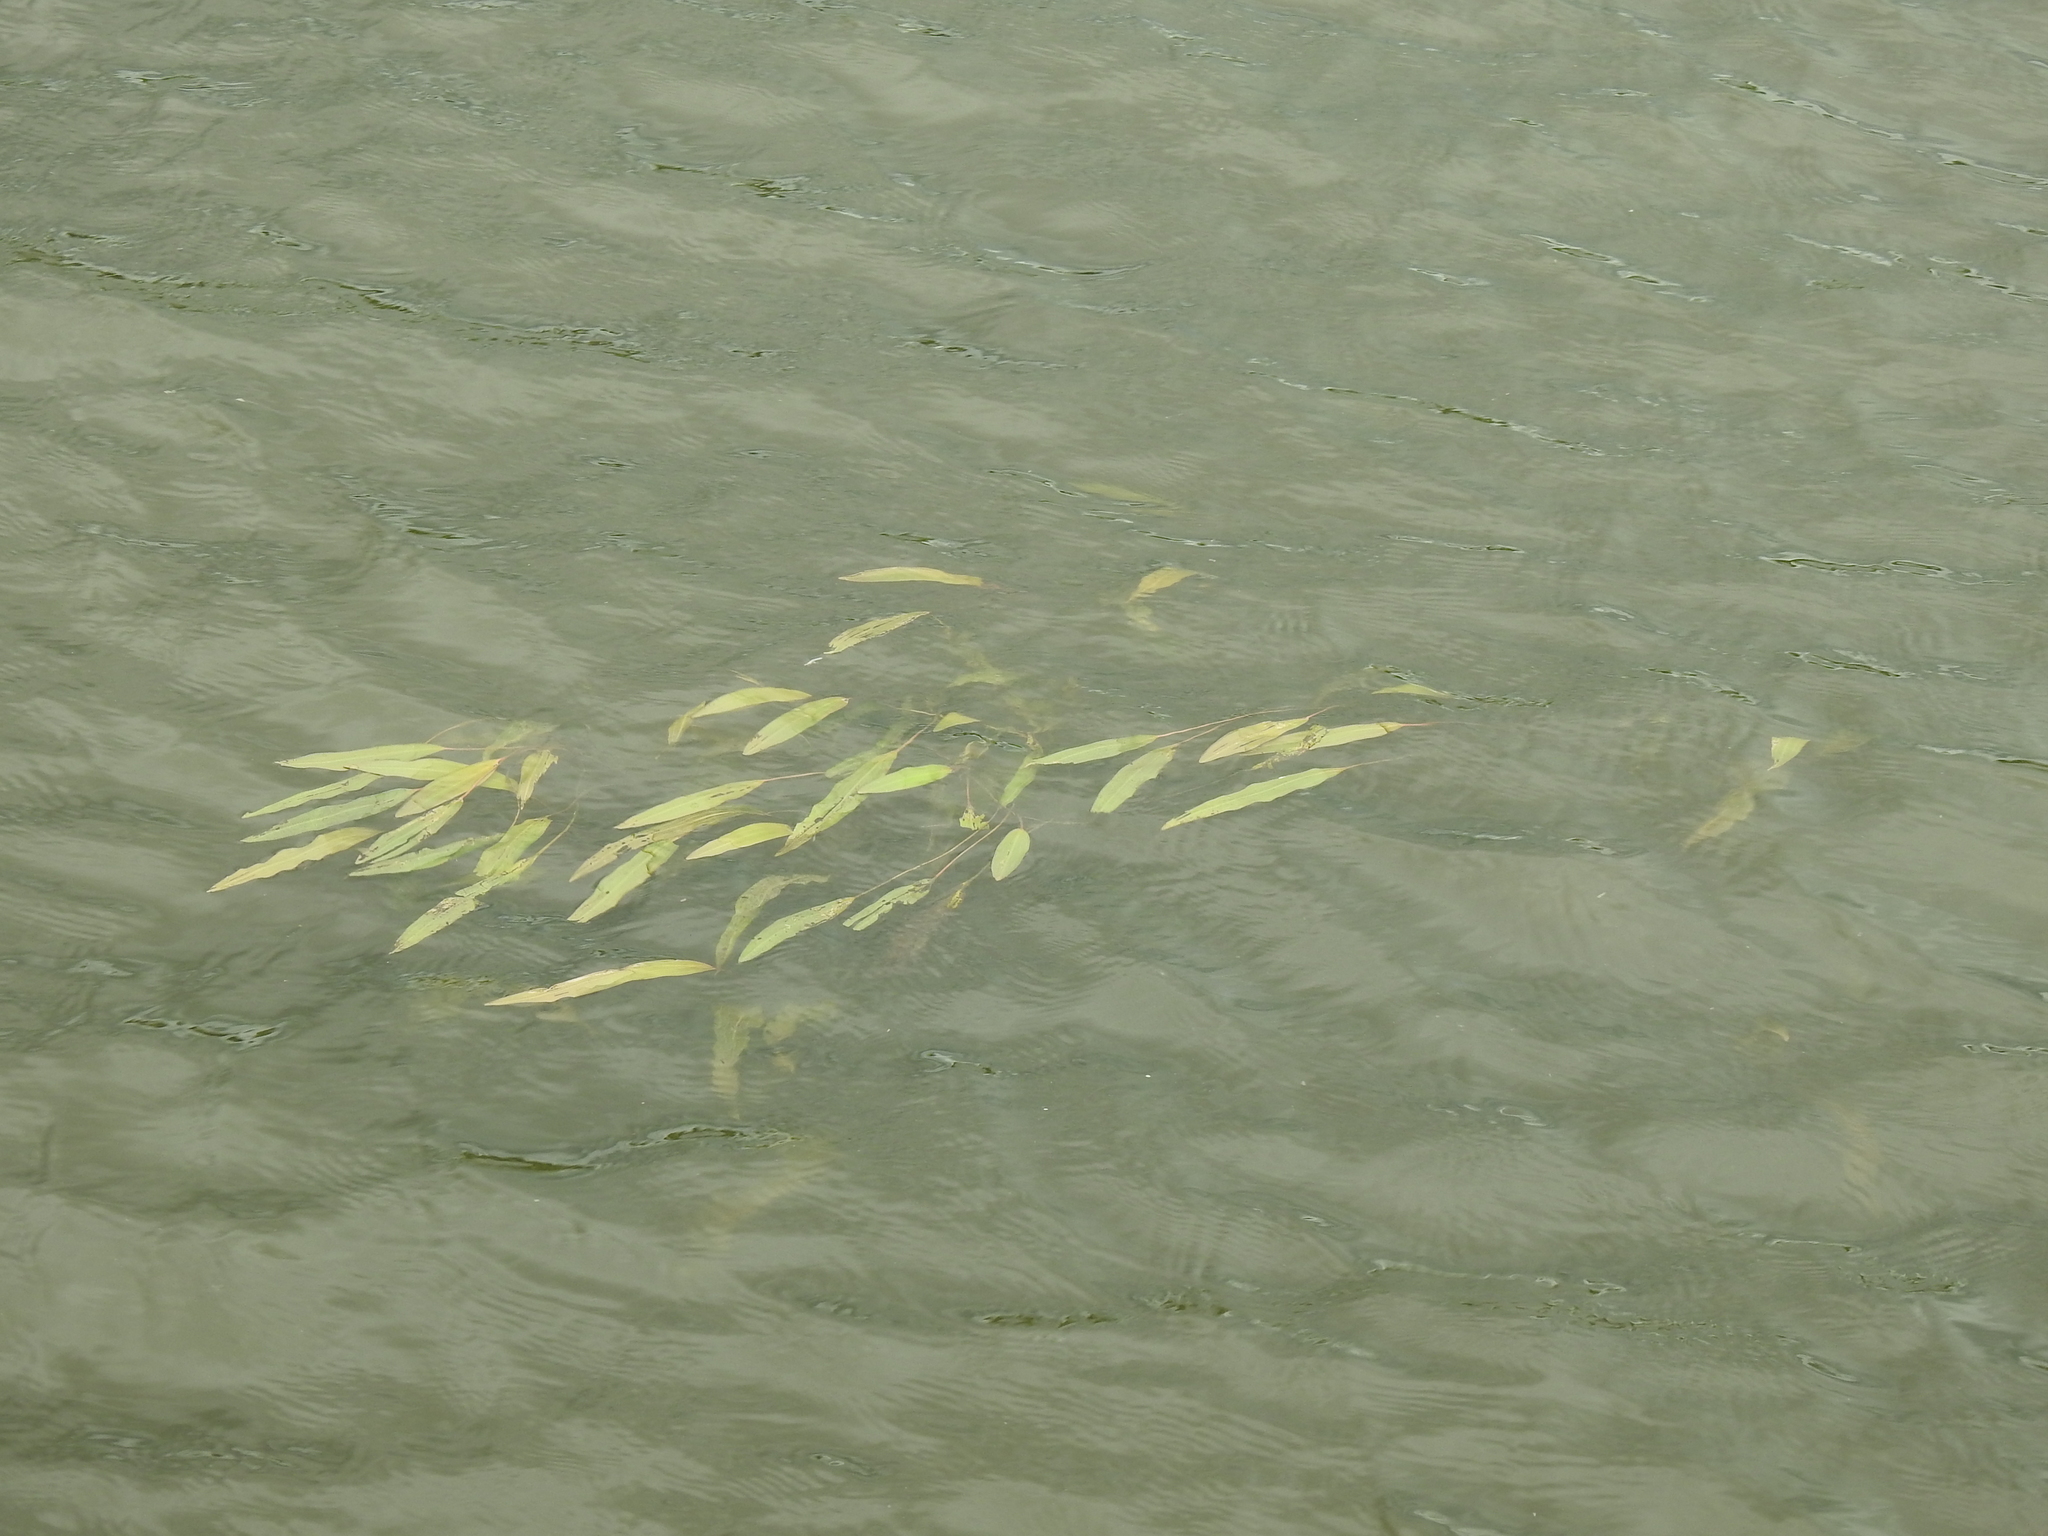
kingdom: Plantae
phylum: Tracheophyta
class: Liliopsida
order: Alismatales
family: Potamogetonaceae
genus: Potamogeton
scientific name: Potamogeton nodosus
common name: Loddon pondweed
